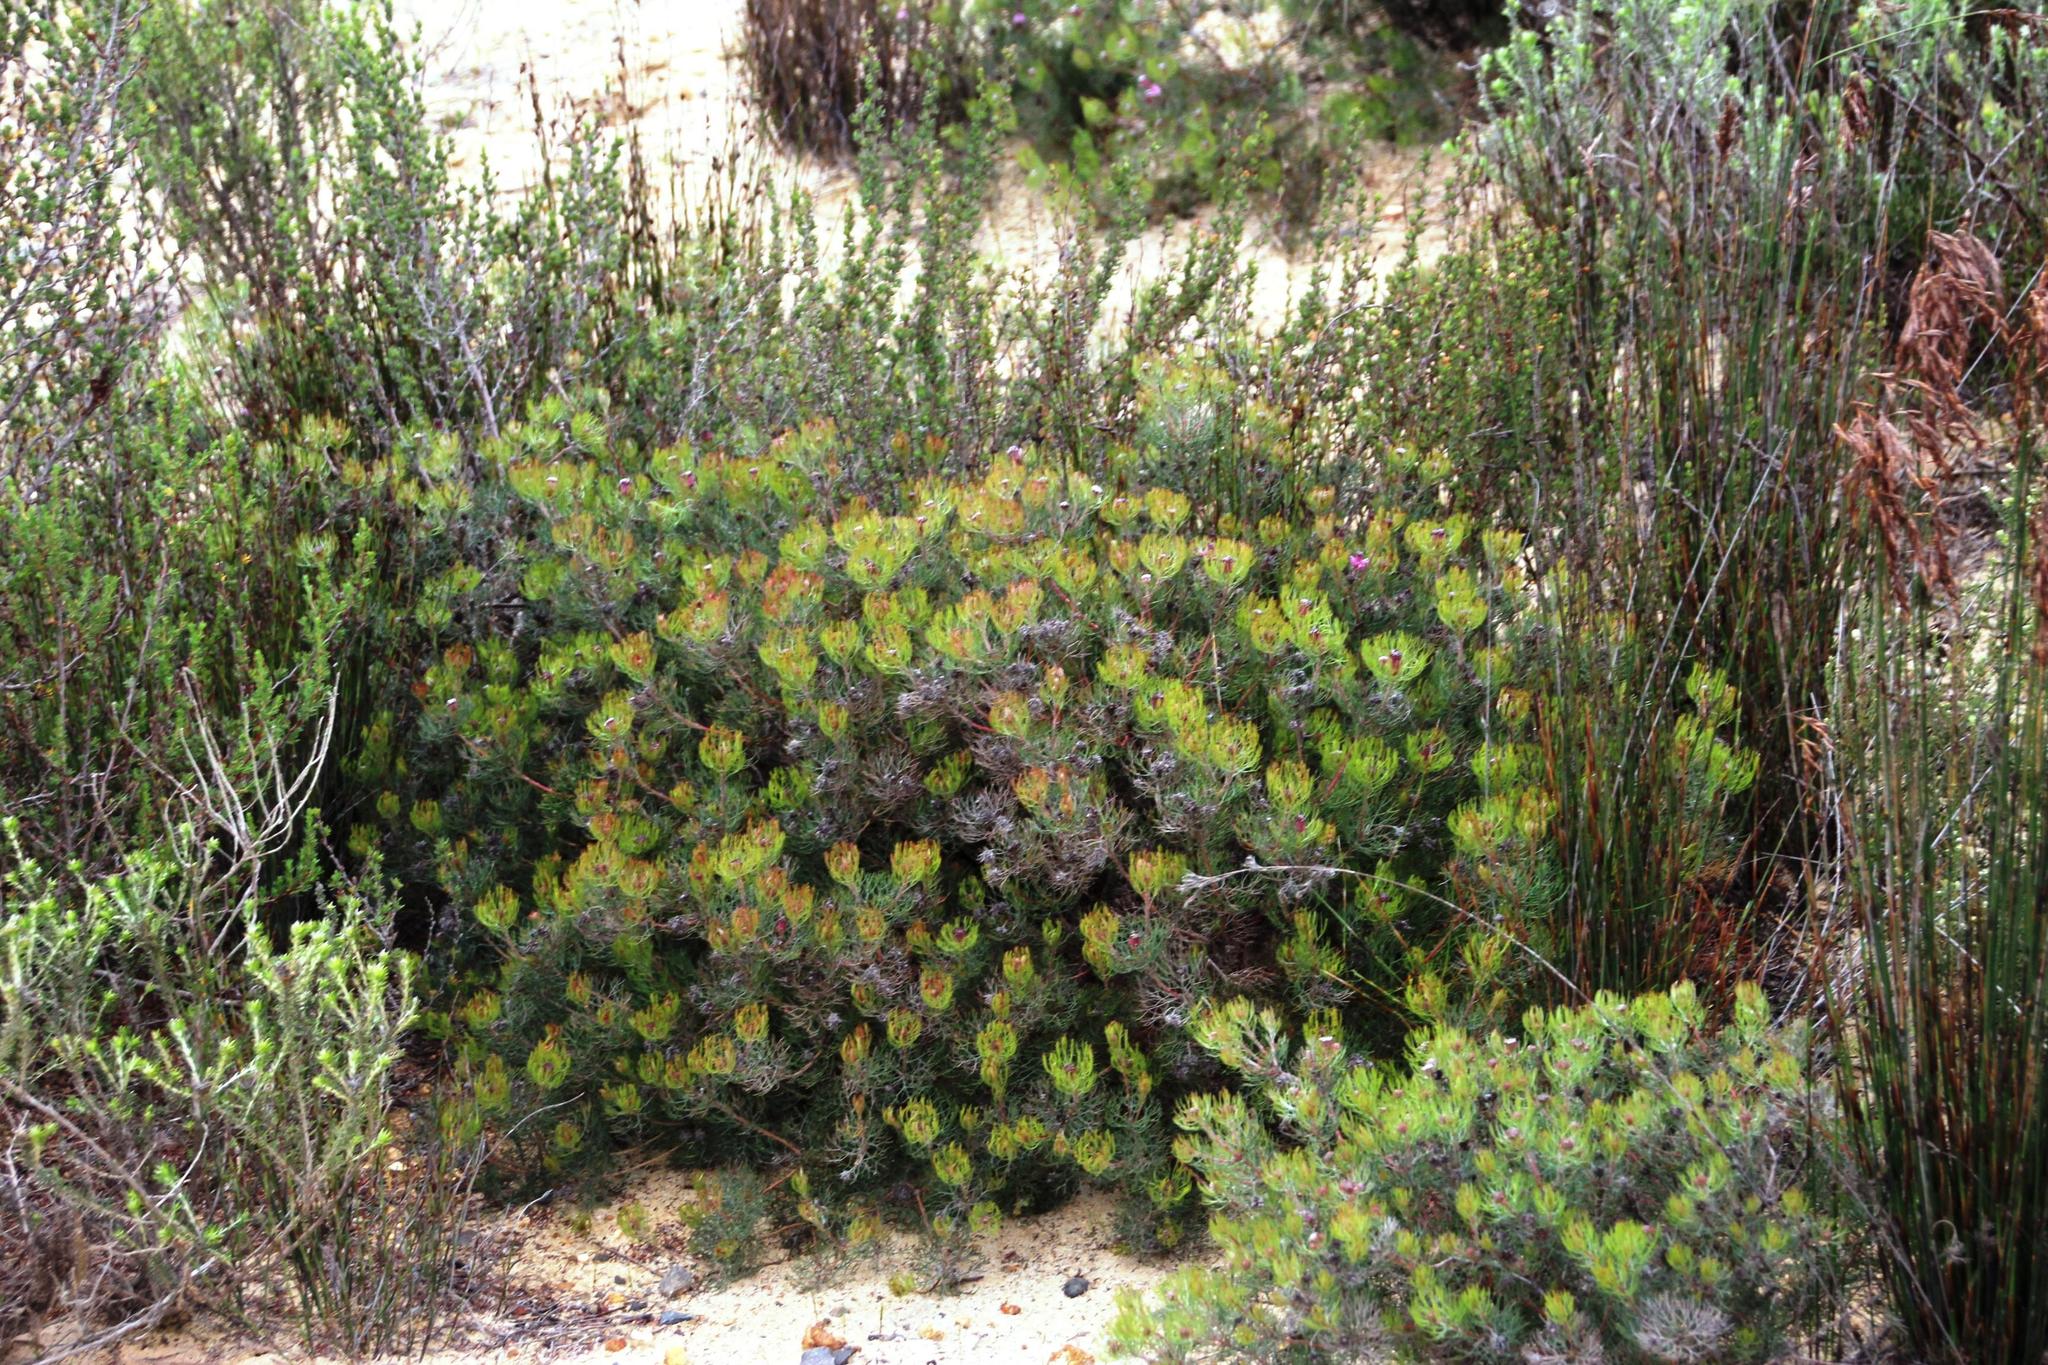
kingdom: Plantae
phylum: Tracheophyta
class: Magnoliopsida
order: Proteales
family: Proteaceae
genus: Serruria
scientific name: Serruria fasciflora
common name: Common pin spiderhead
